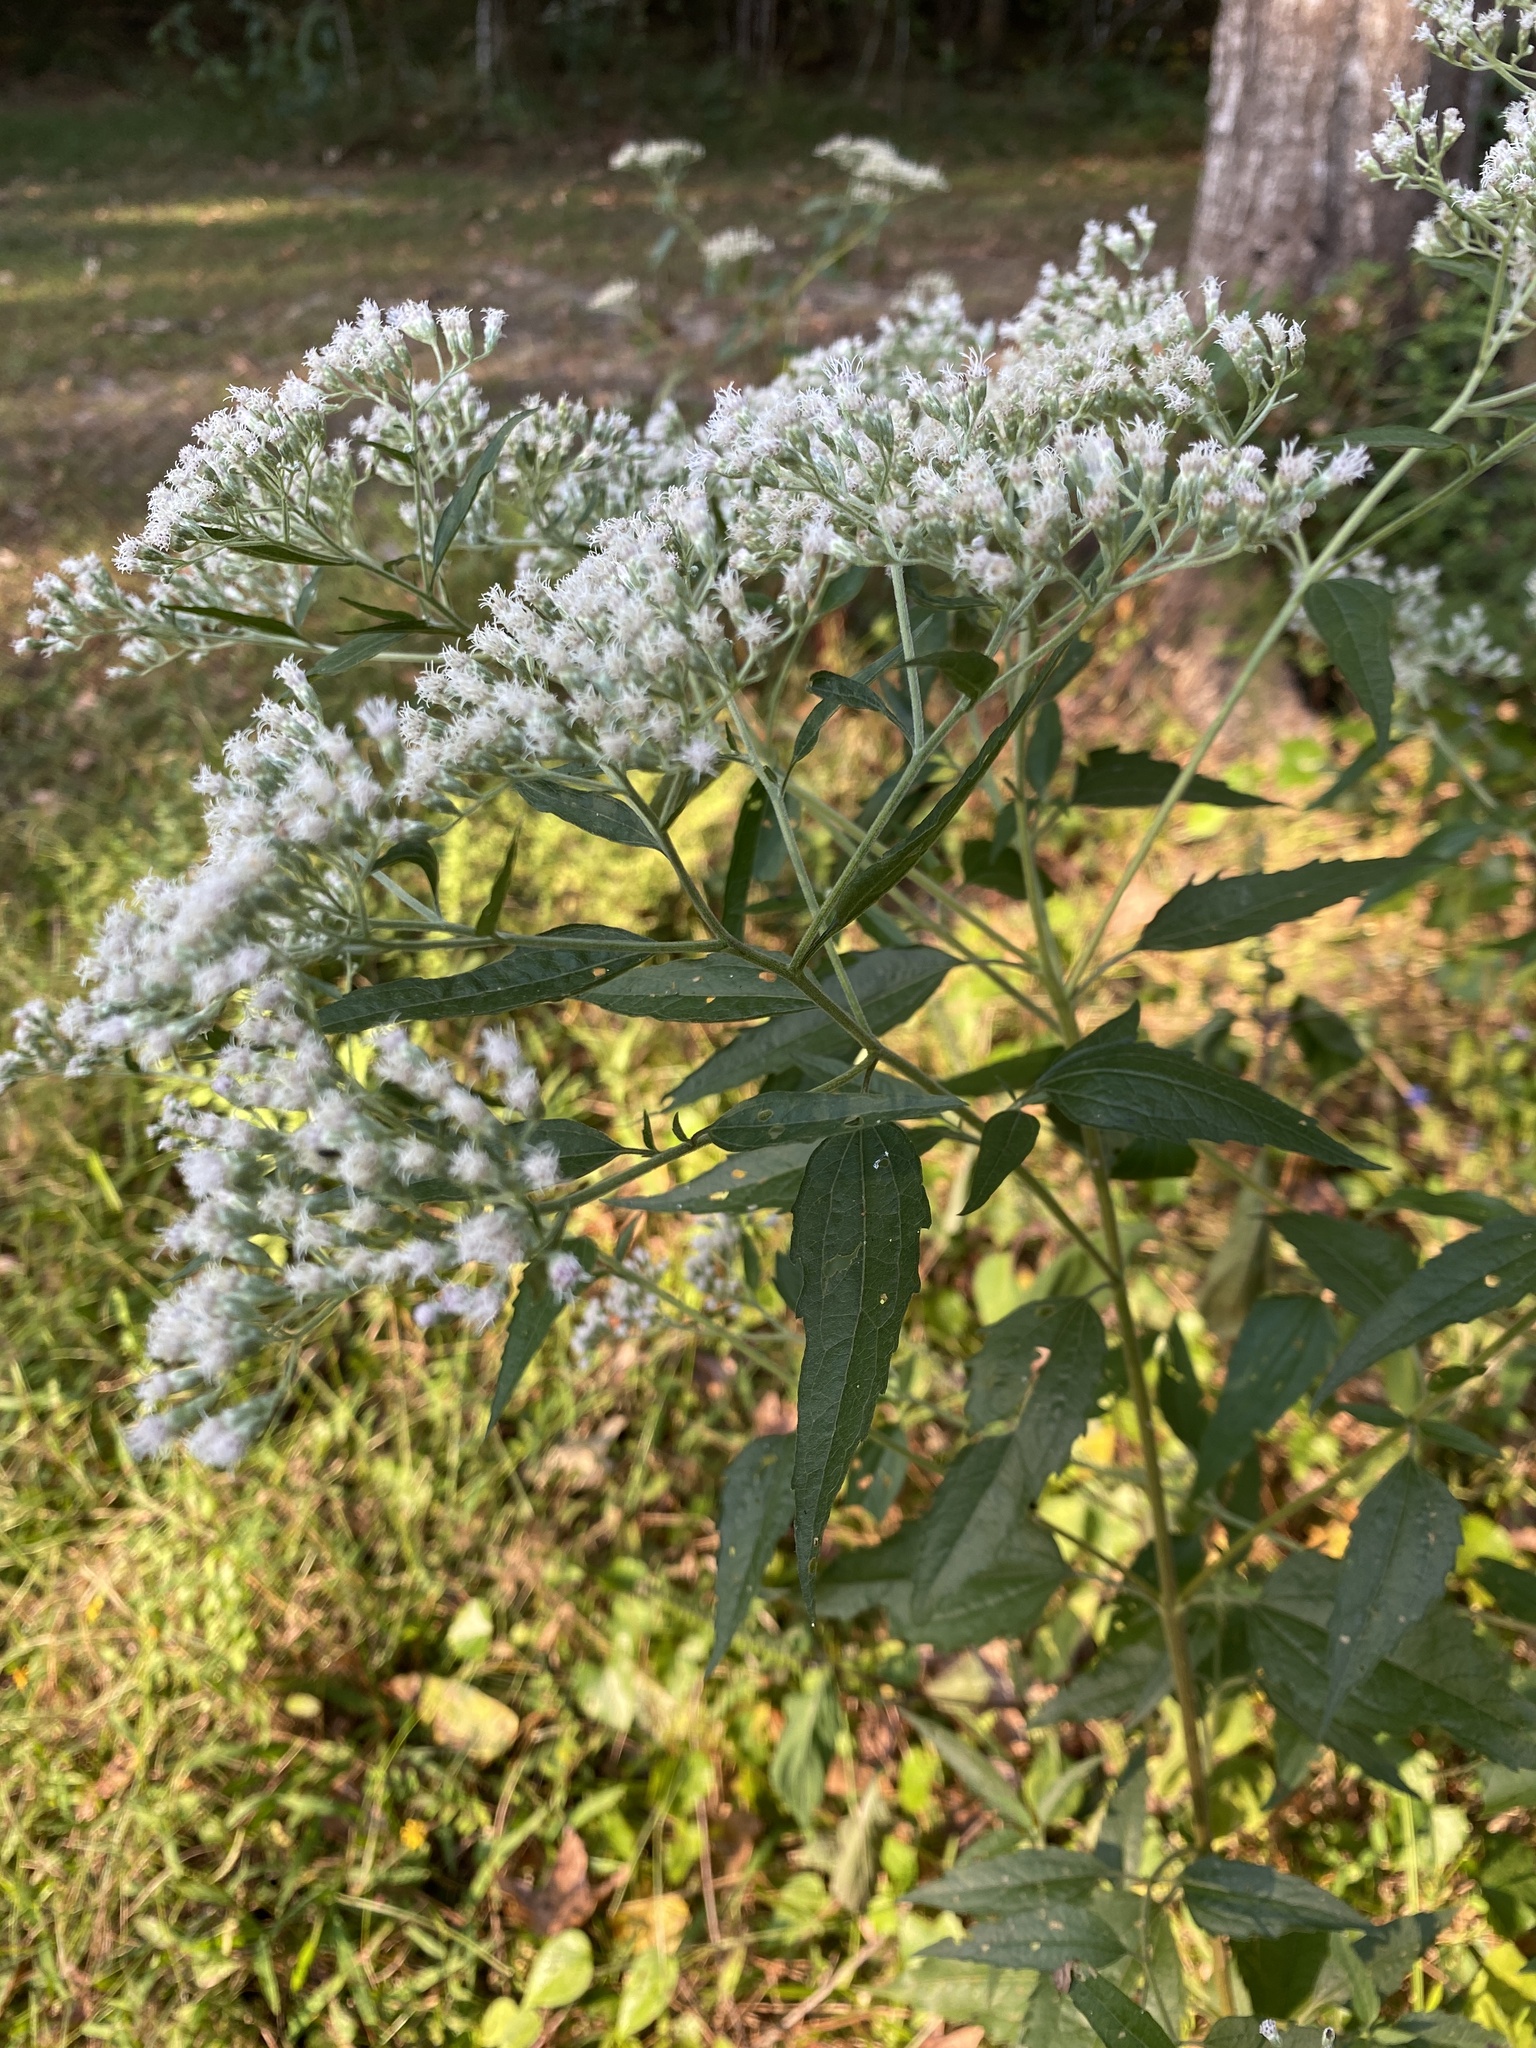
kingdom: Plantae
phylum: Tracheophyta
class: Magnoliopsida
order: Asterales
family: Asteraceae
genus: Eupatorium
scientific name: Eupatorium serotinum
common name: Late boneset
